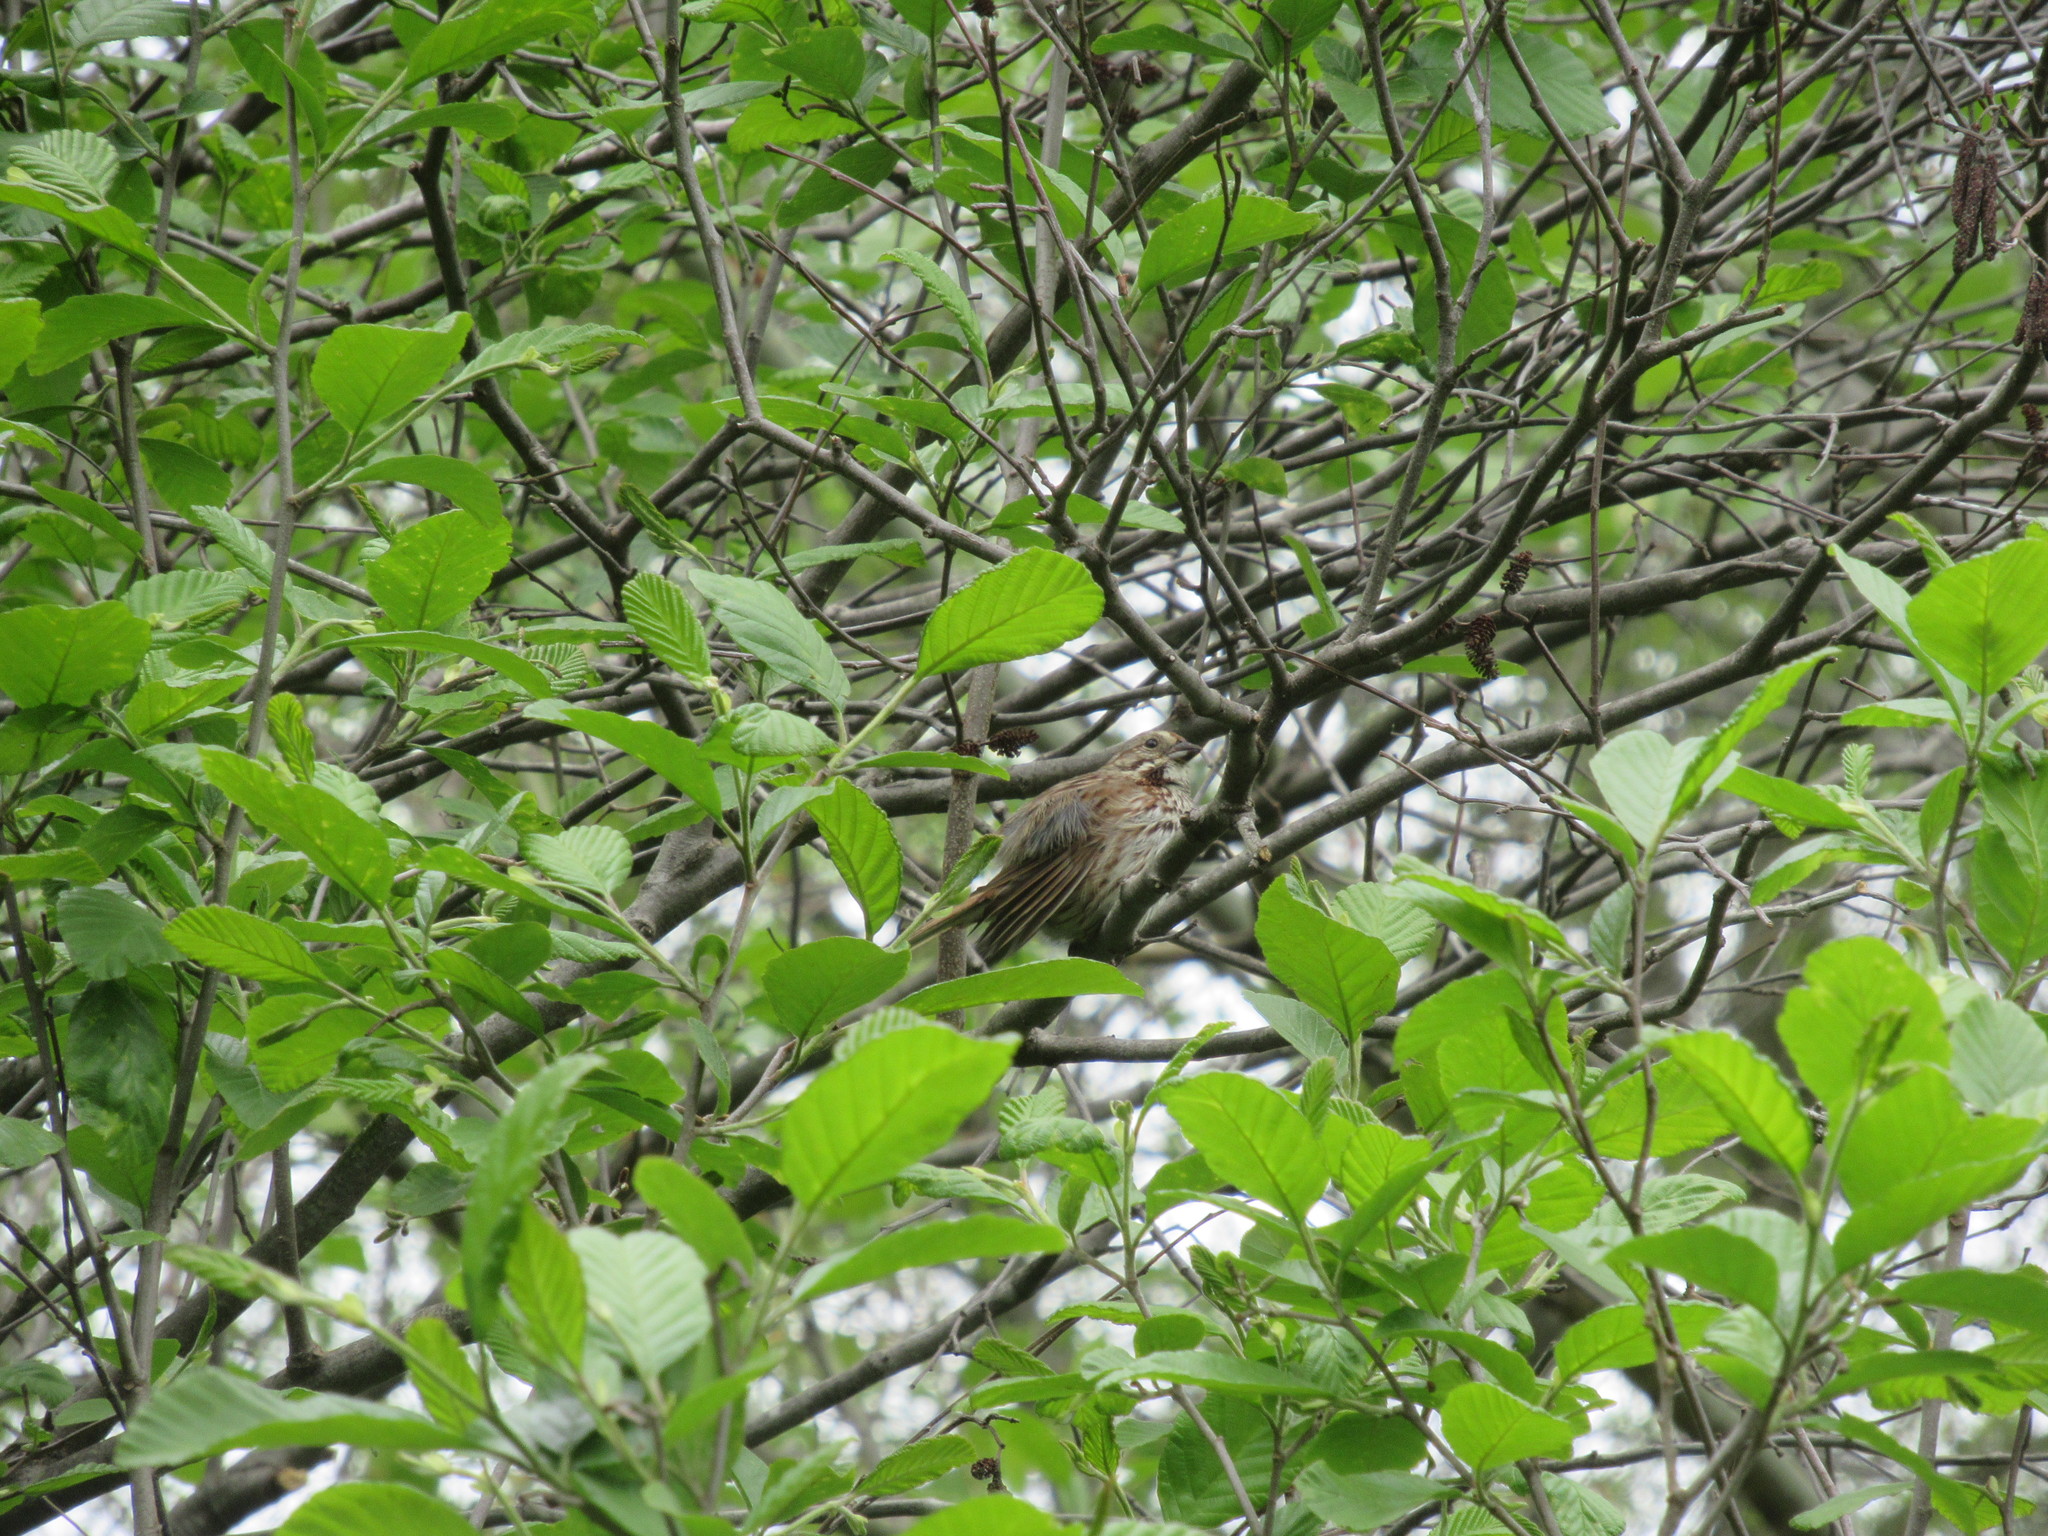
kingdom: Animalia
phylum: Chordata
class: Aves
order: Passeriformes
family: Passerellidae
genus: Melospiza
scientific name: Melospiza melodia
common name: Song sparrow
